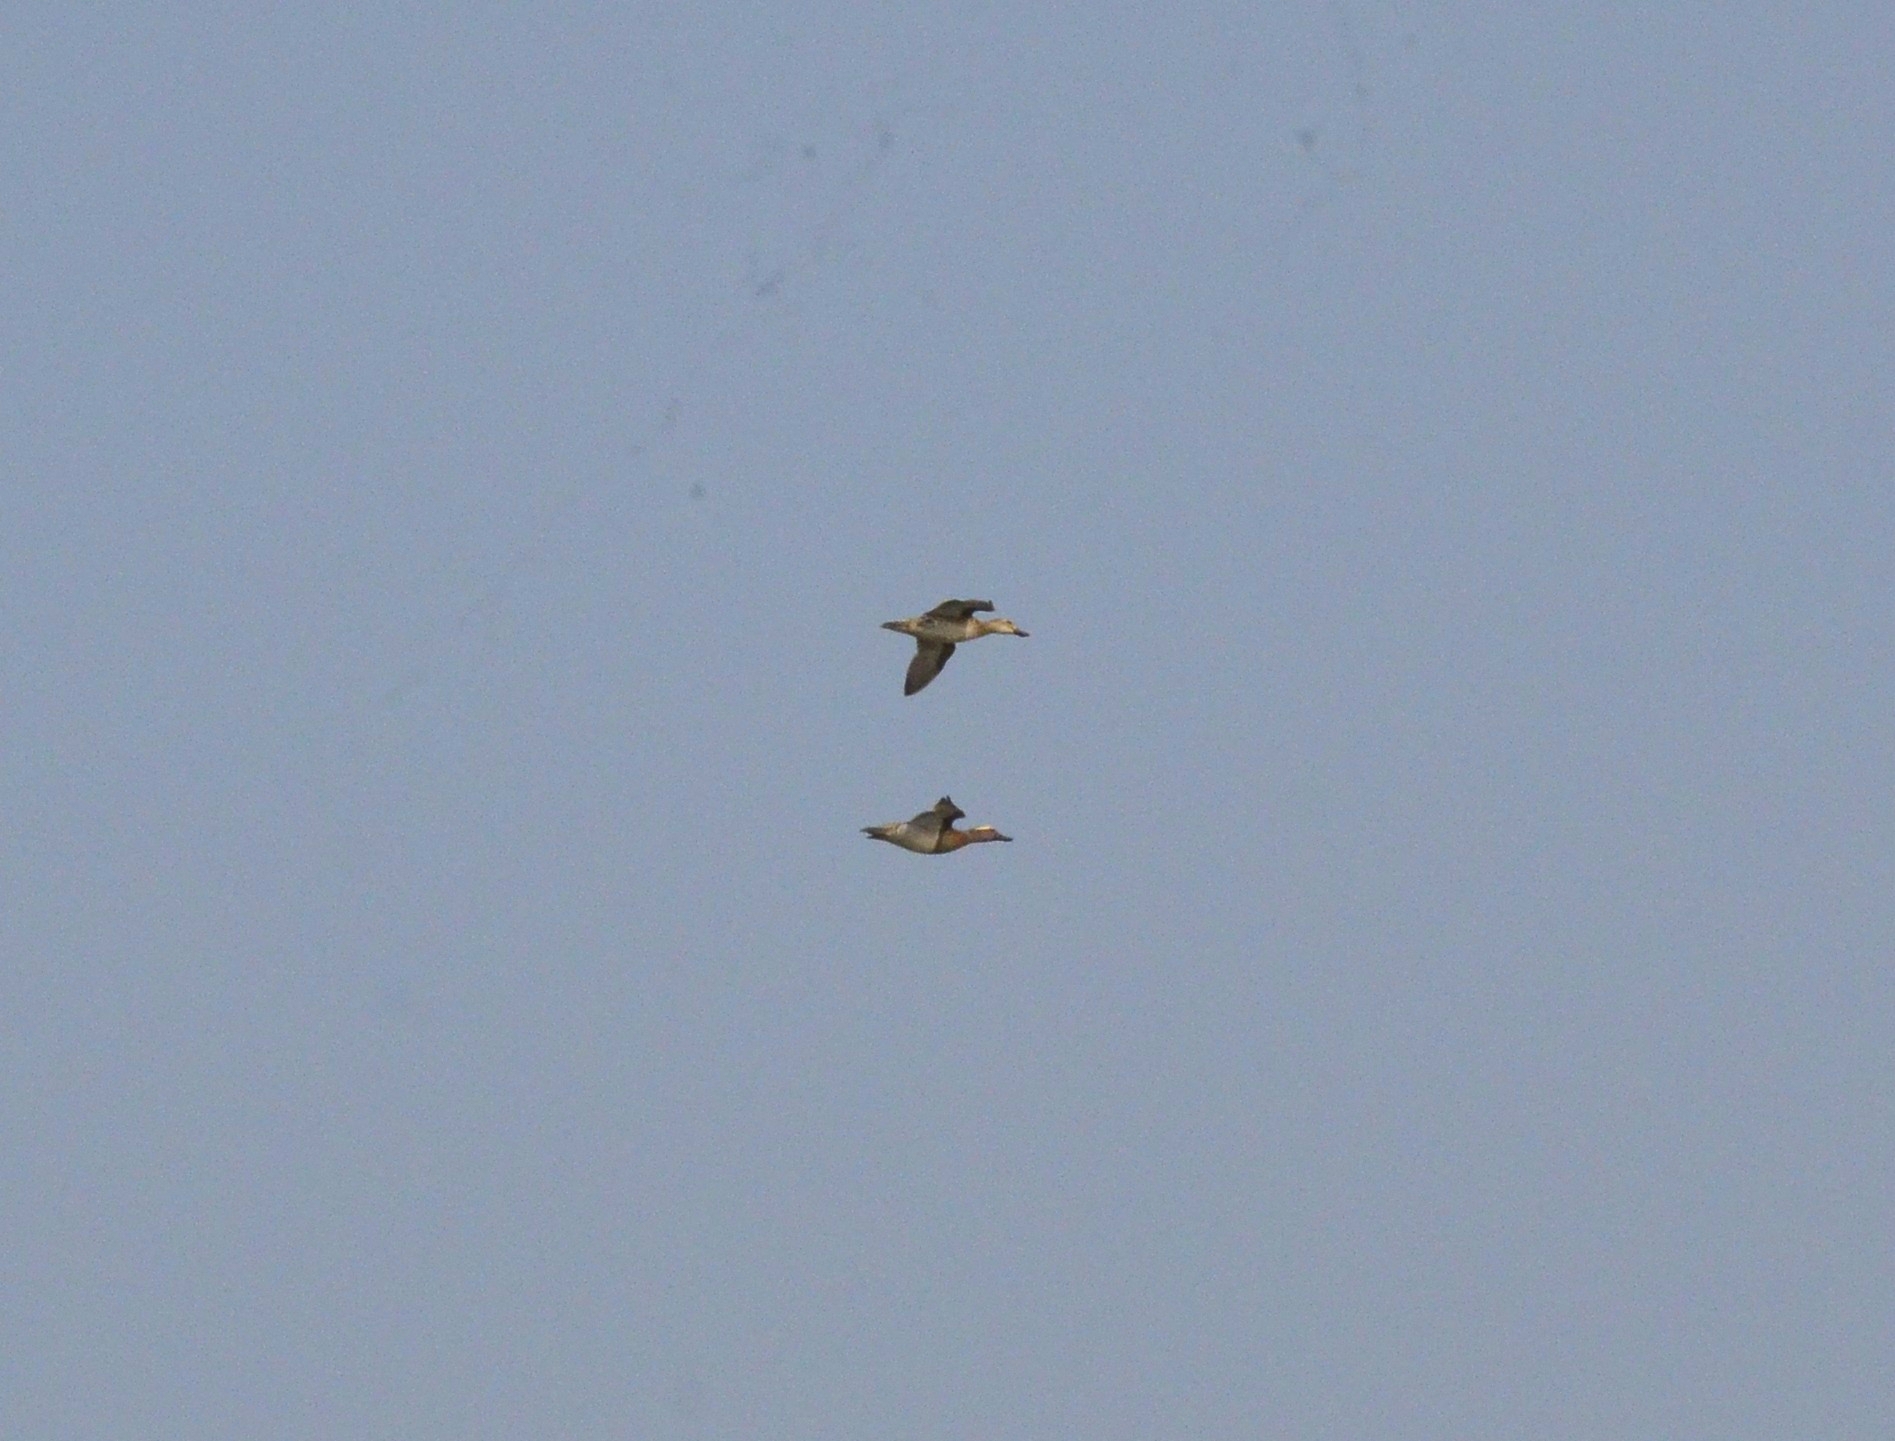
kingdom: Animalia
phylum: Chordata
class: Aves
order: Anseriformes
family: Anatidae
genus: Spatula
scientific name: Spatula querquedula
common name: Garganey
